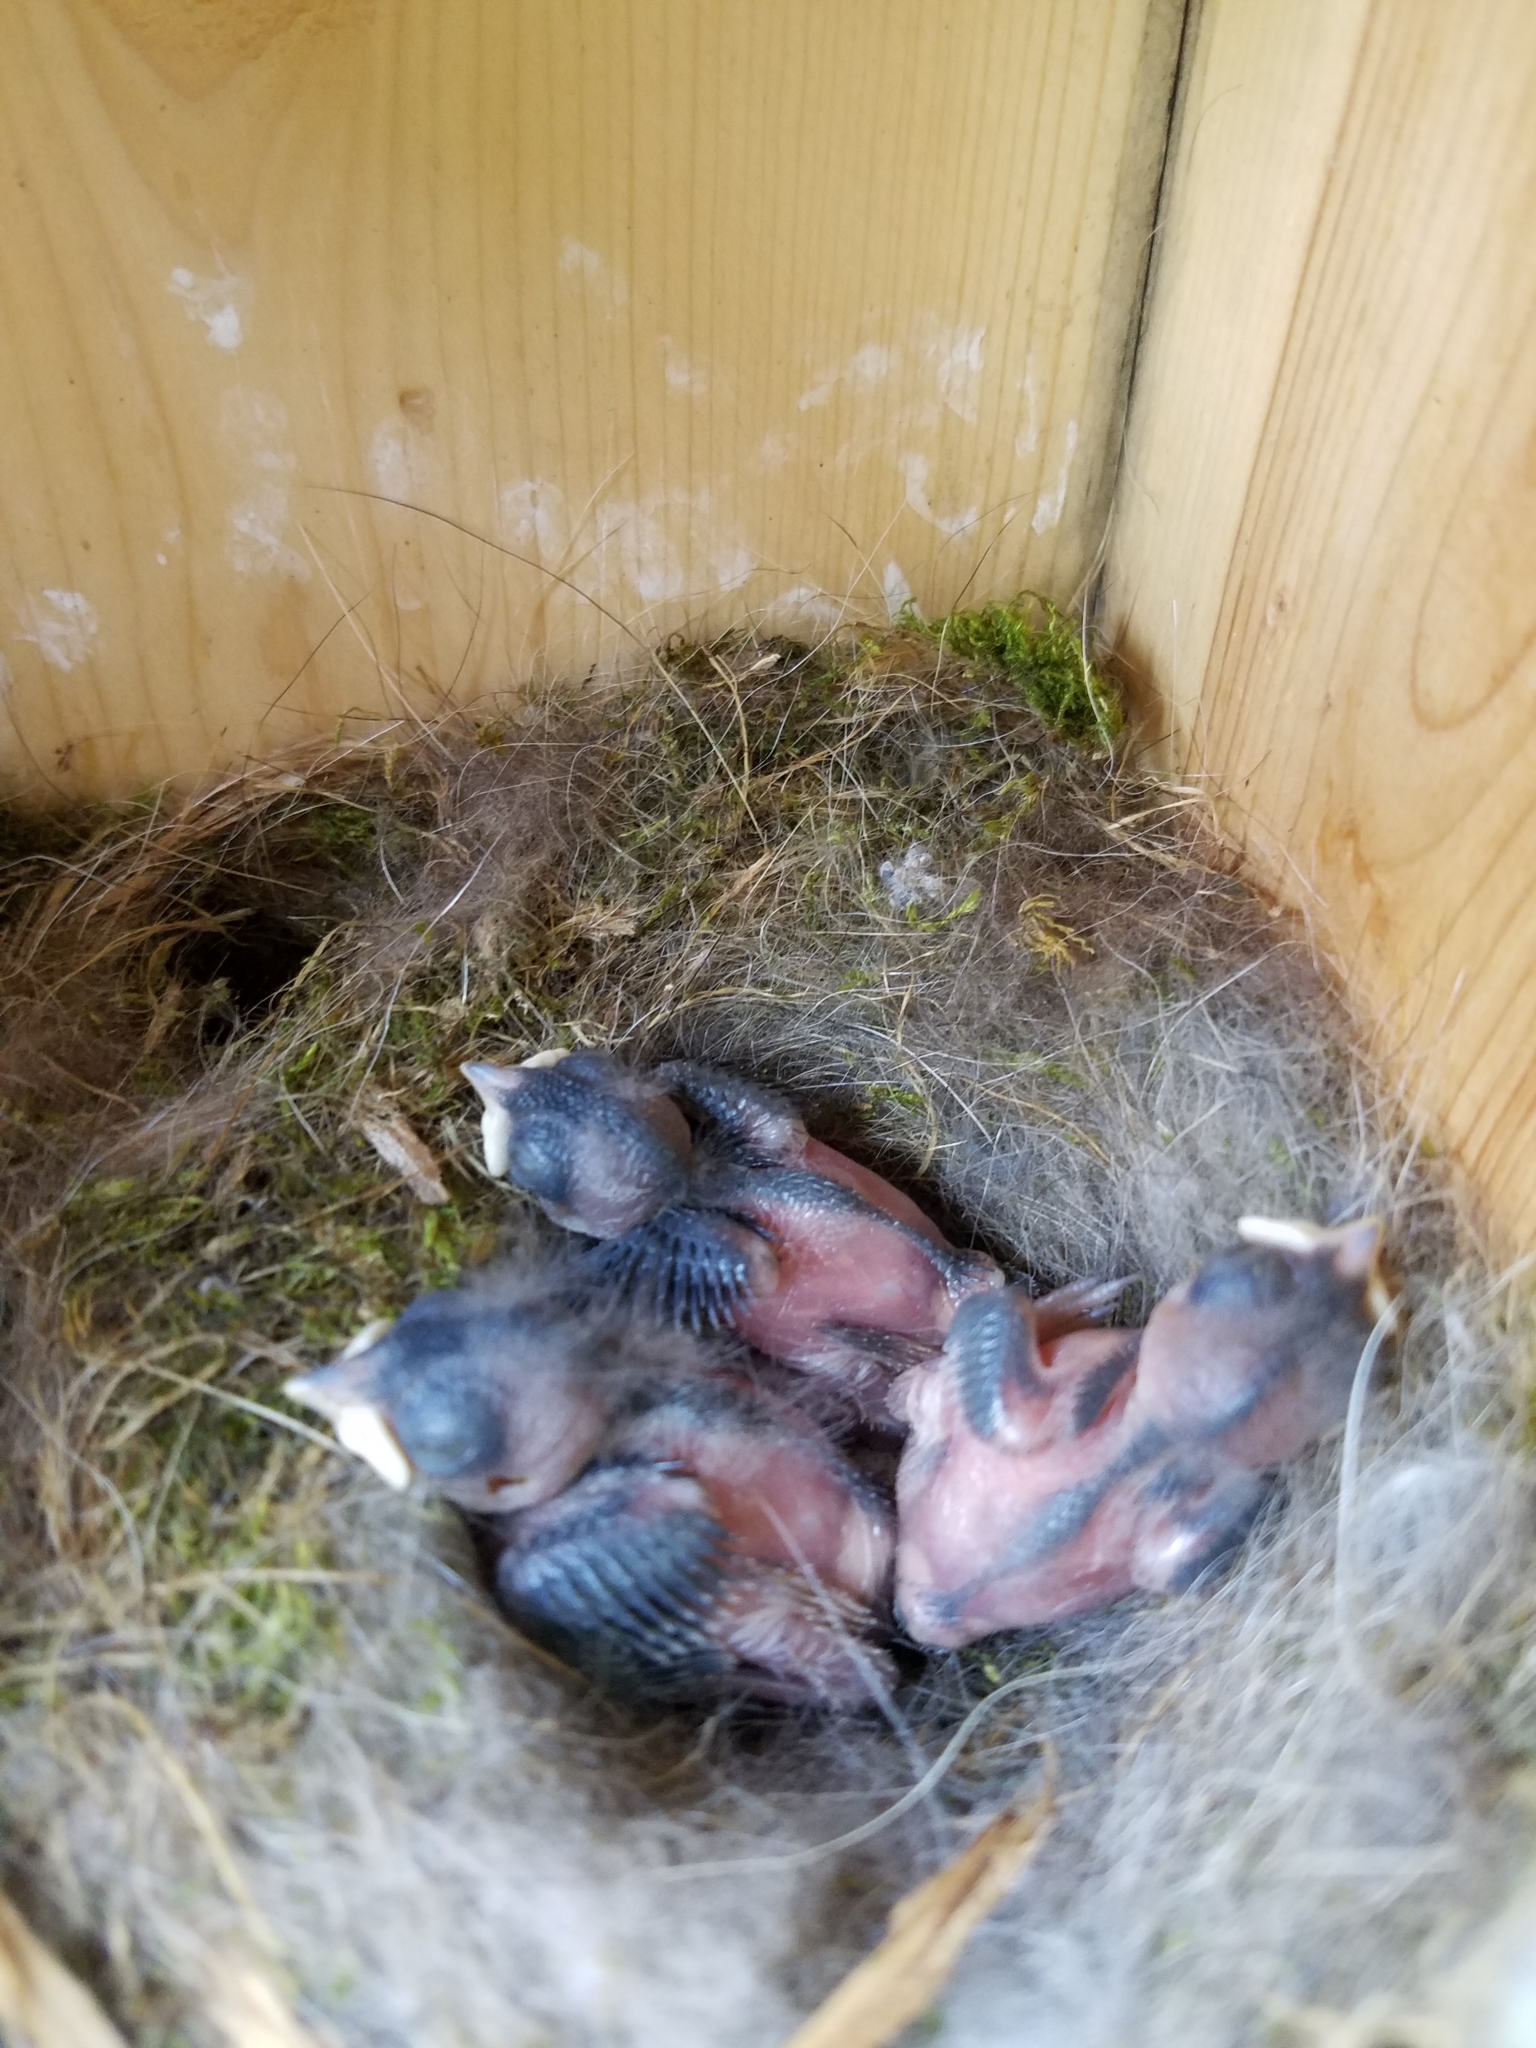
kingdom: Animalia
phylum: Chordata
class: Aves
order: Passeriformes
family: Paridae
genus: Poecile
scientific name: Poecile carolinensis
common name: Carolina chickadee
